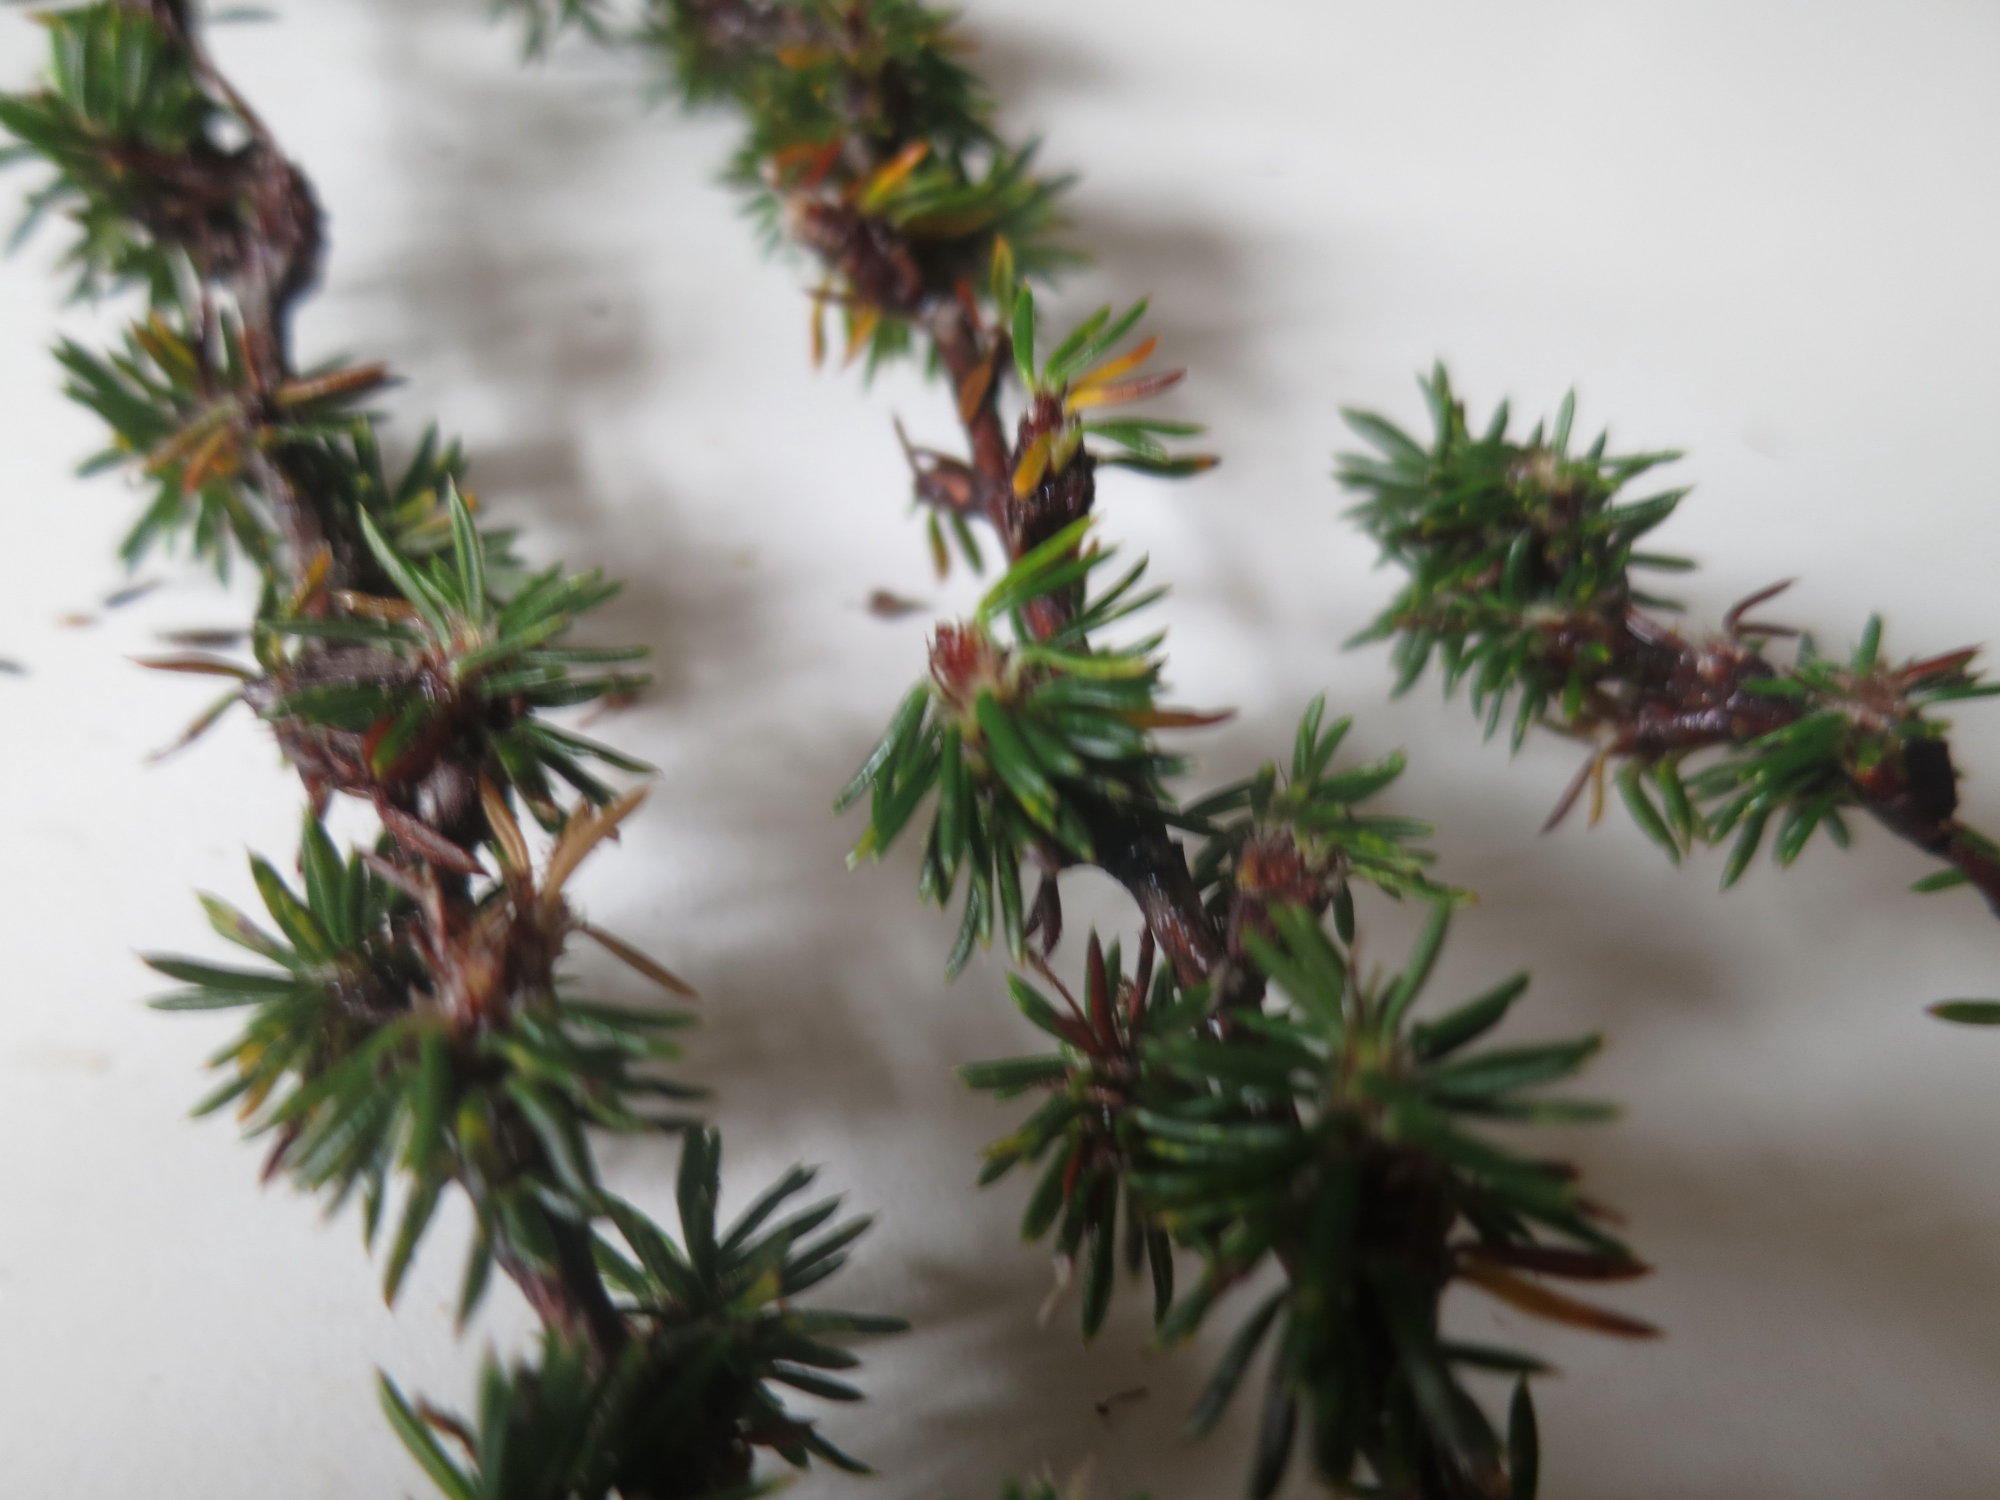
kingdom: Plantae
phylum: Tracheophyta
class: Magnoliopsida
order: Rosales
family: Rosaceae
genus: Cliffortia
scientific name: Cliffortia dispar
